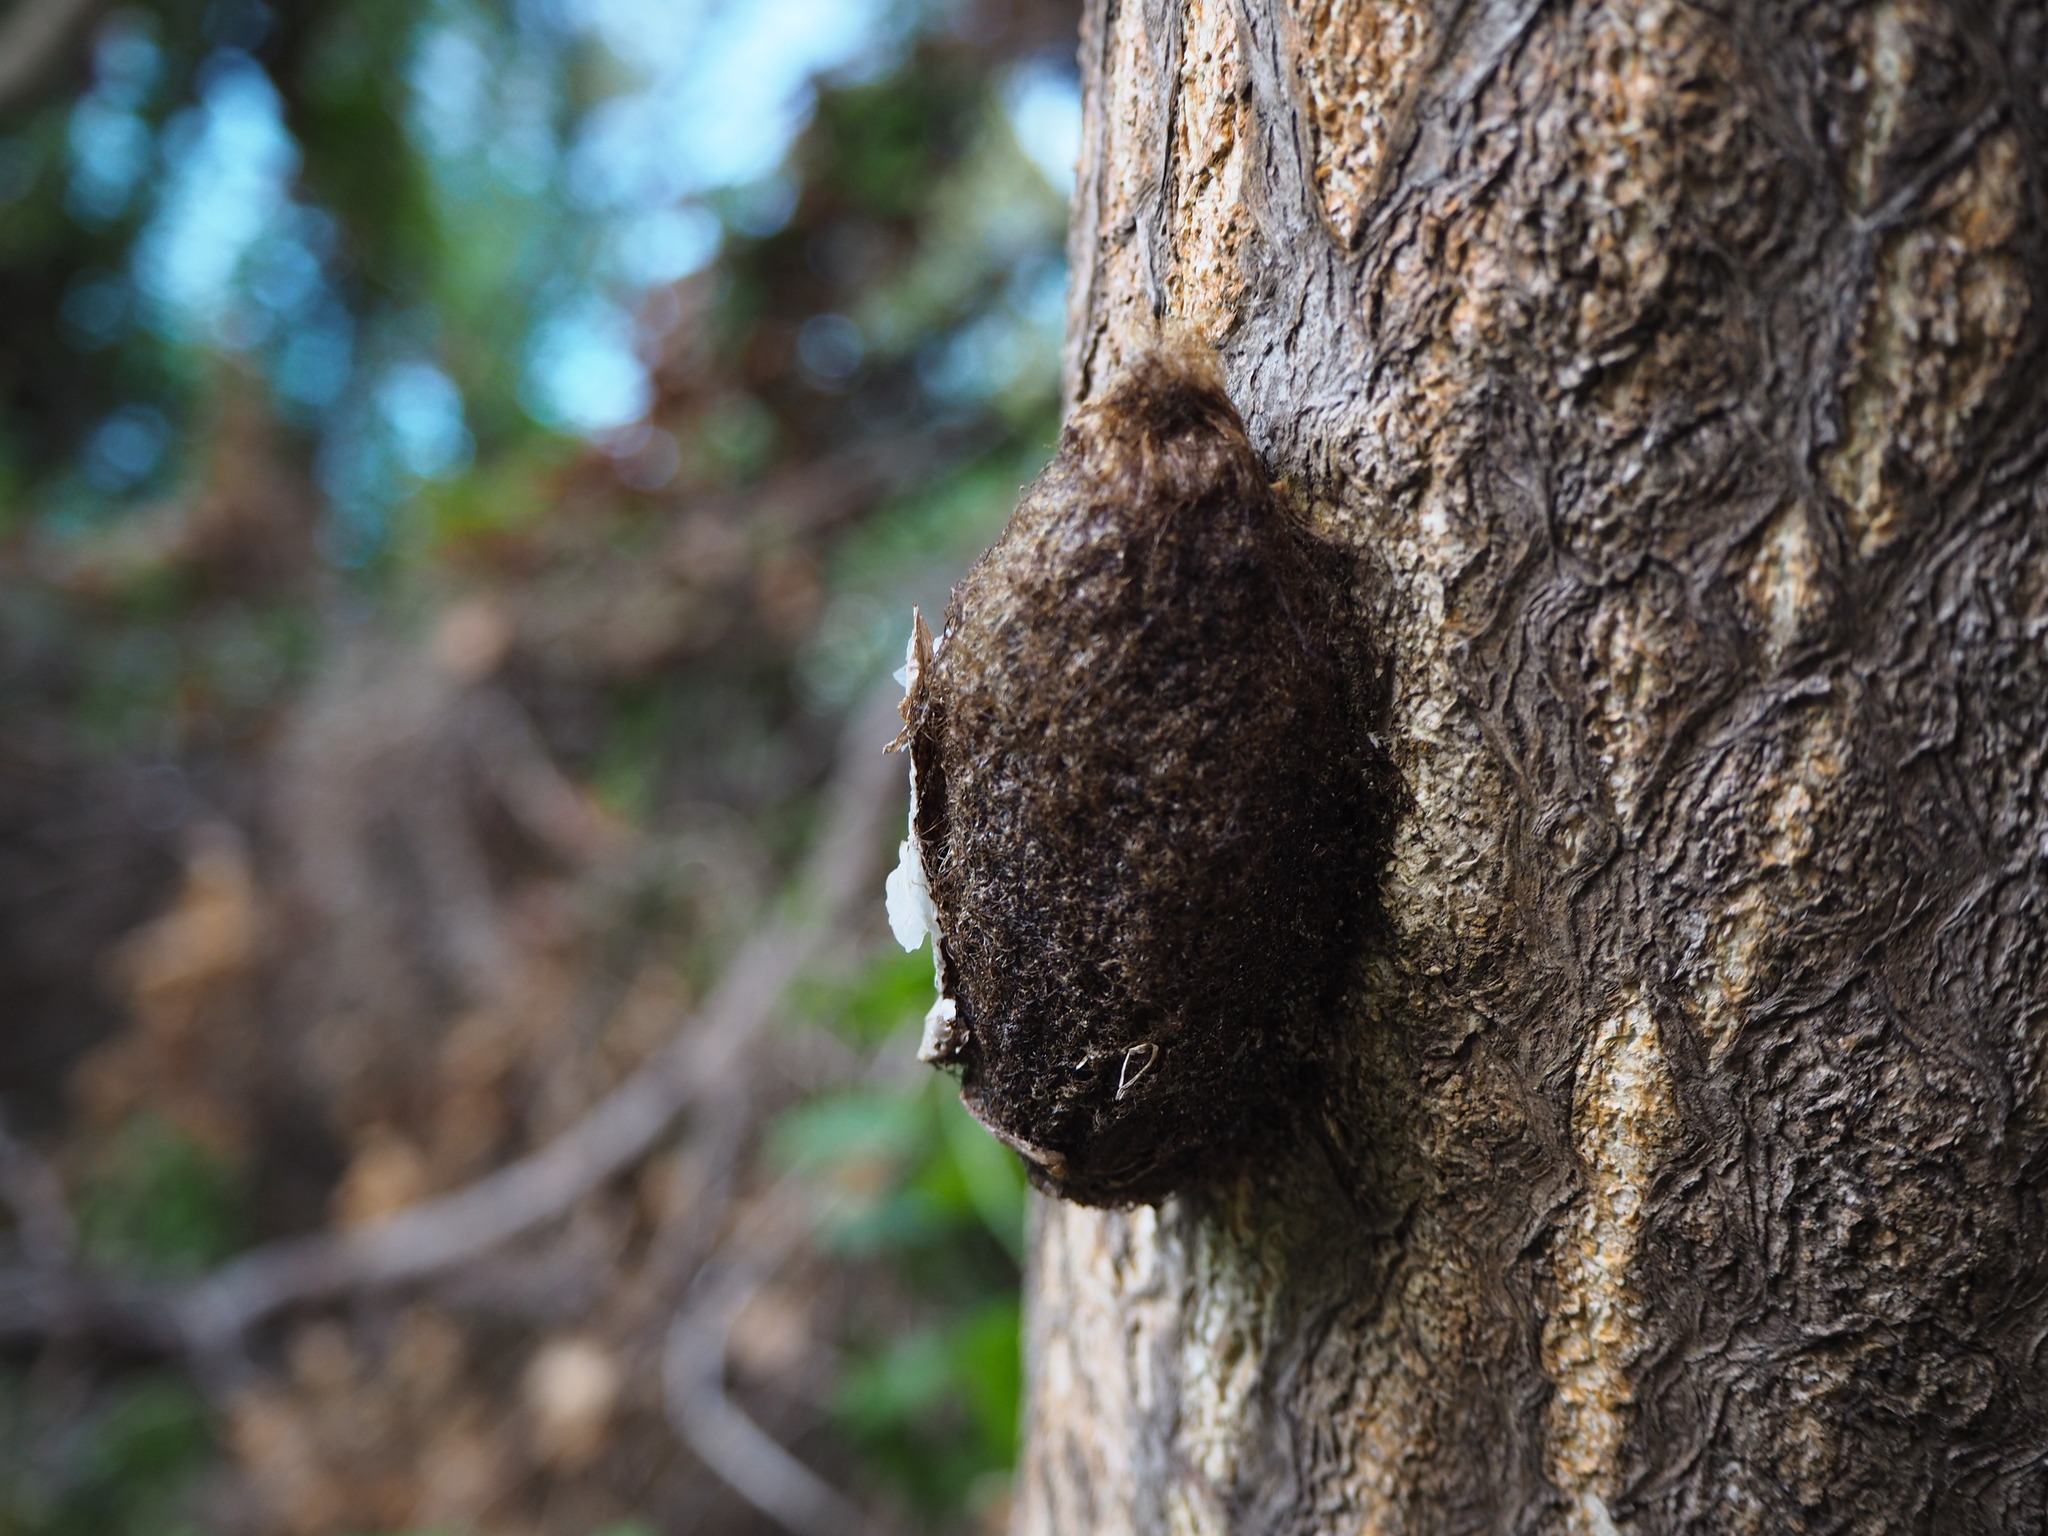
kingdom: Animalia
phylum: Arthropoda
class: Insecta
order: Lepidoptera
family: Saturniidae
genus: Saturnia
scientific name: Saturnia pyri
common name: Great peacock moth
